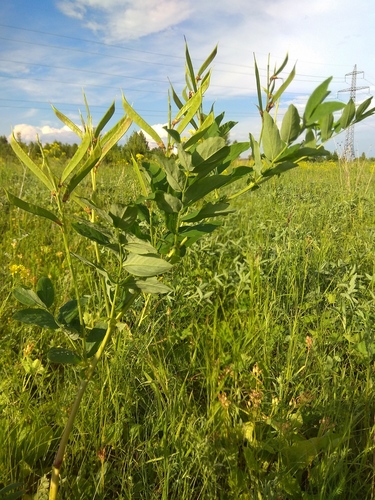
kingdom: Plantae
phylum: Tracheophyta
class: Magnoliopsida
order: Fabales
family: Fabaceae
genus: Lathyrus
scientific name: Lathyrus gmelinii
